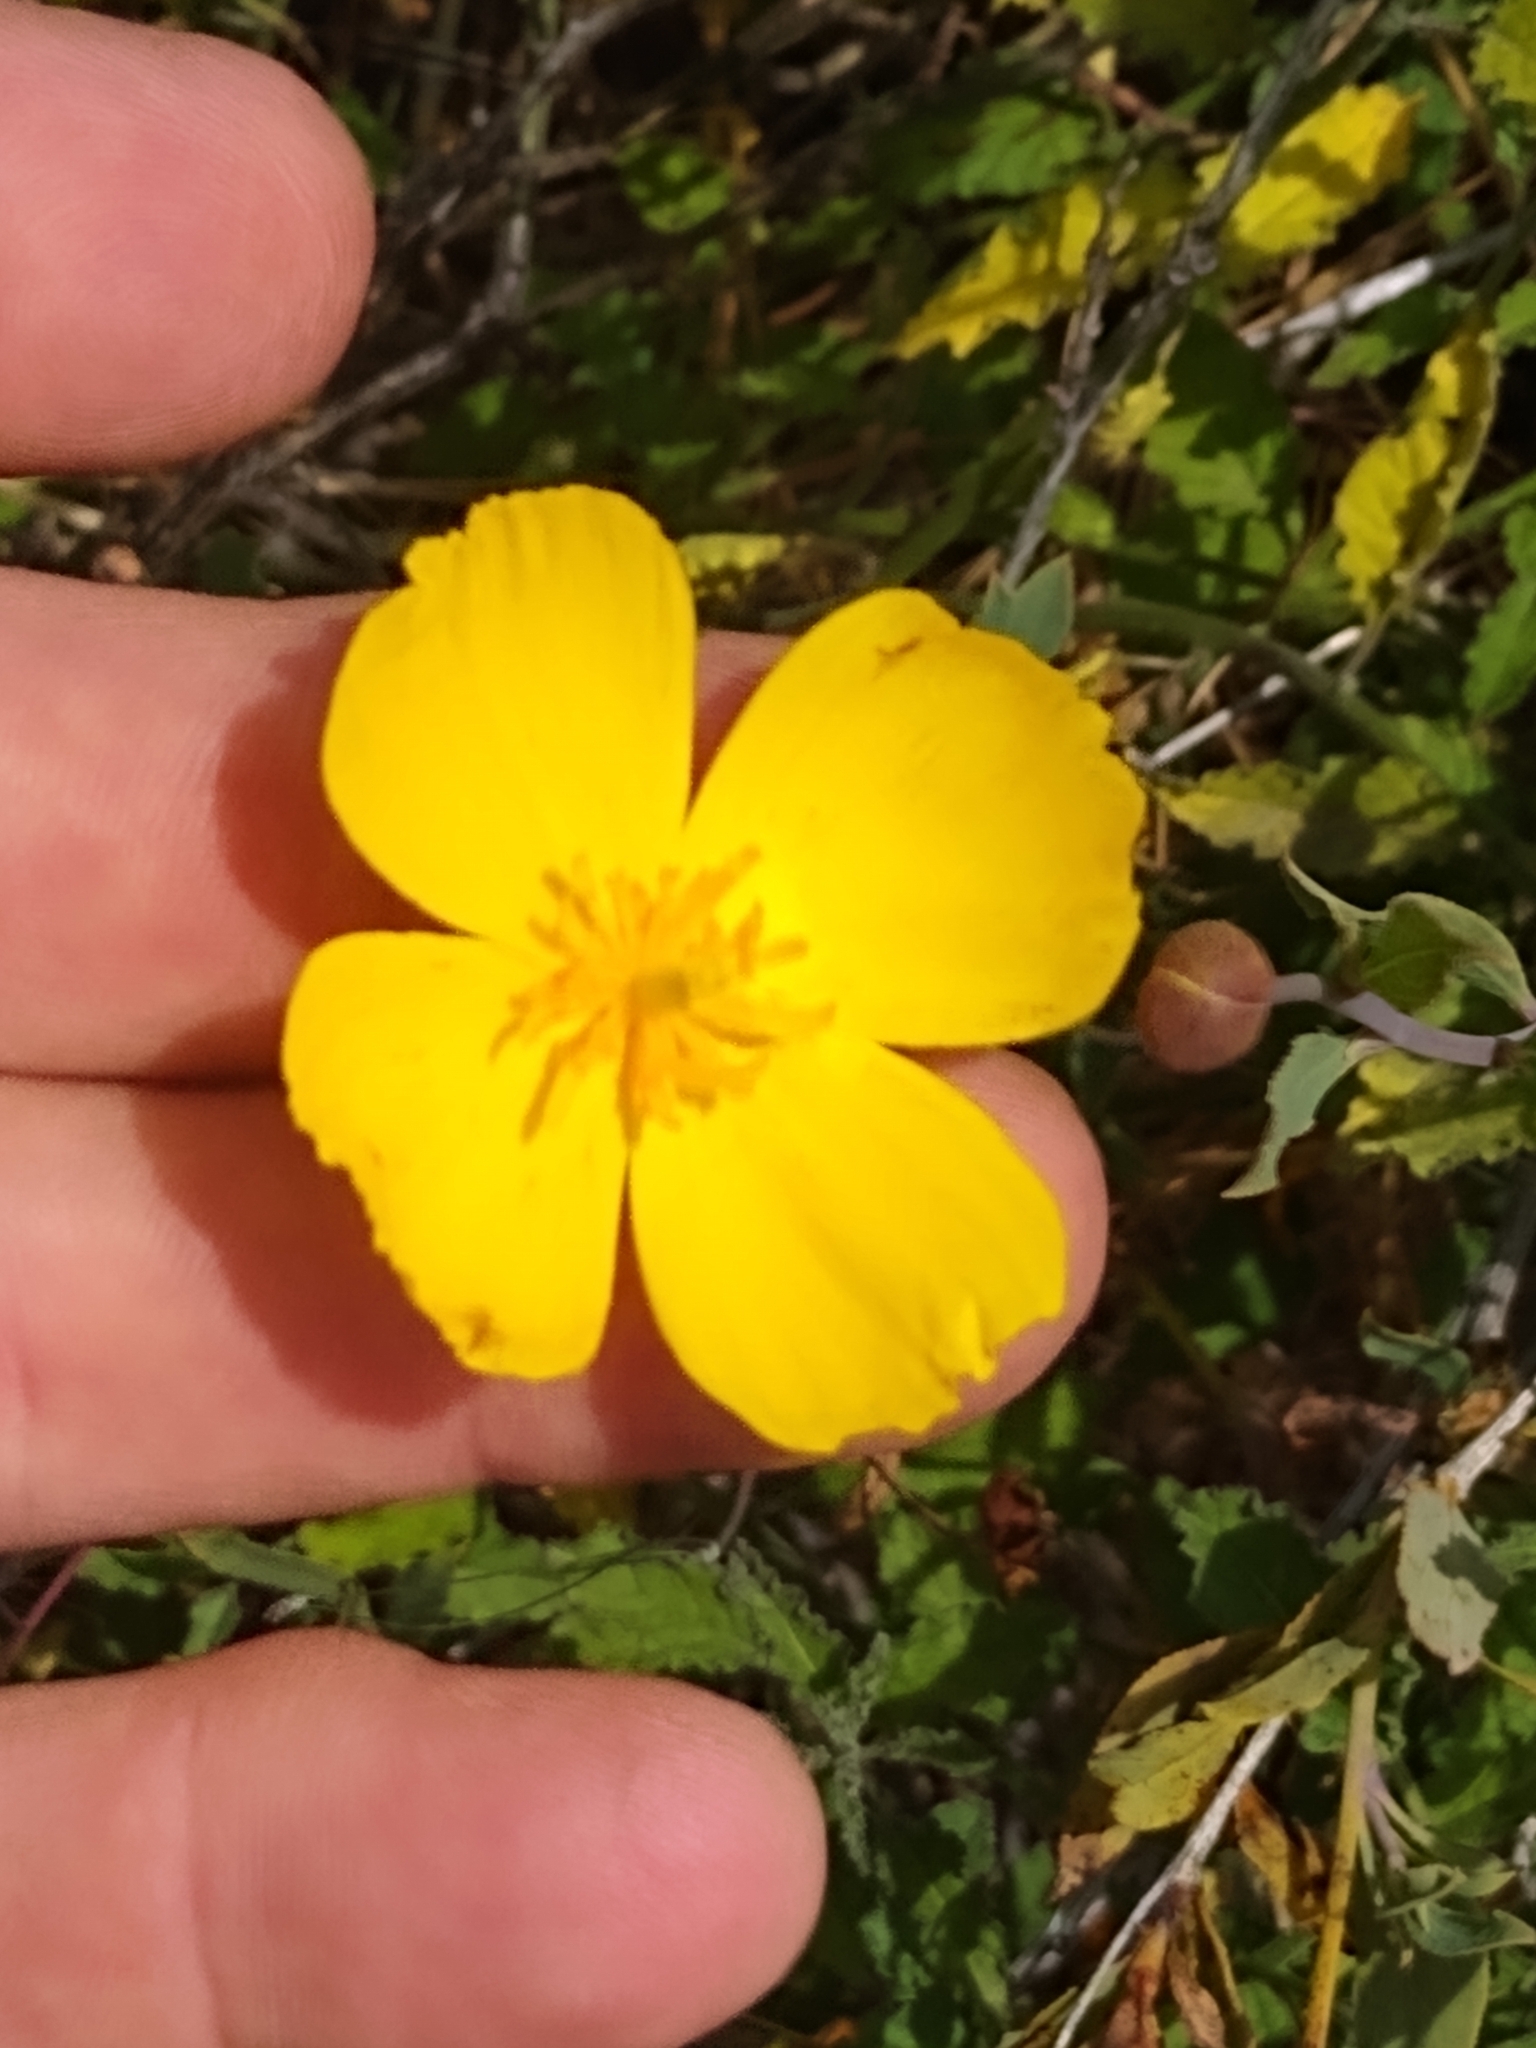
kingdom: Plantae
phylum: Tracheophyta
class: Magnoliopsida
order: Ranunculales
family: Papaveraceae
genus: Dendromecon
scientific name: Dendromecon rigida
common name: Tree poppy
